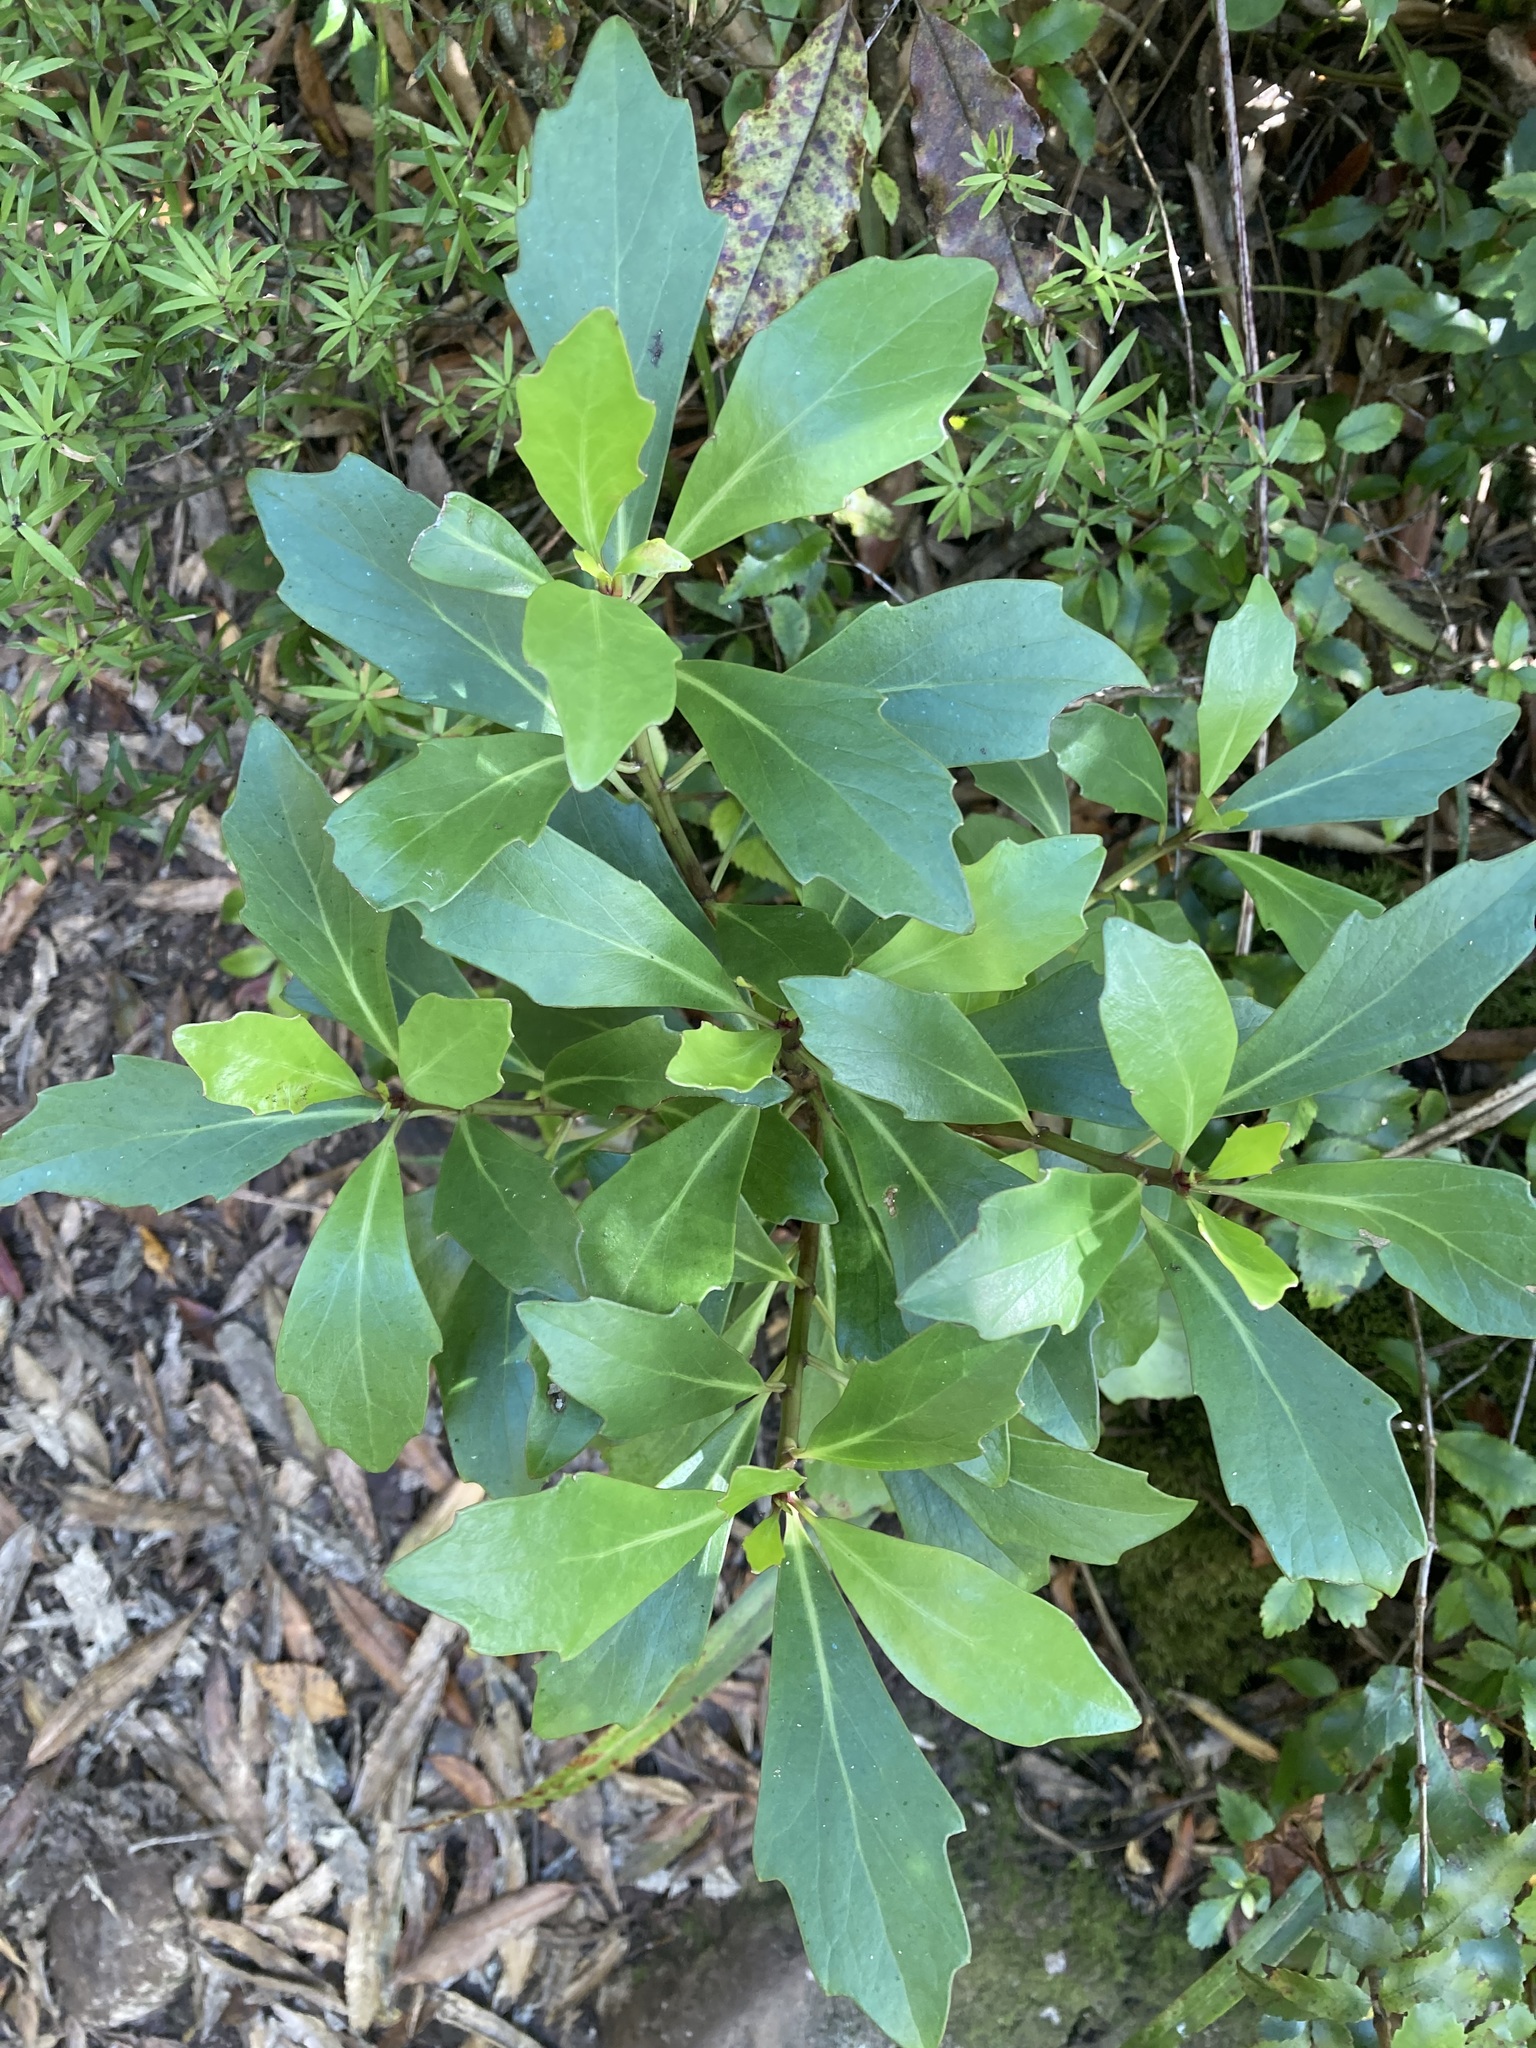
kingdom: Plantae
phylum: Tracheophyta
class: Magnoliopsida
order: Asterales
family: Asteraceae
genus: Brachyglottis
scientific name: Brachyglottis kirkii
